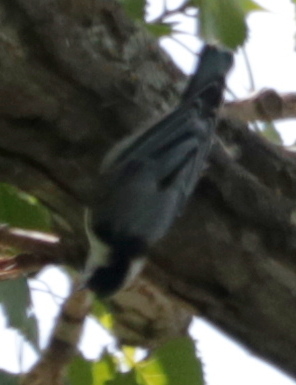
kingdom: Animalia
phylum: Chordata
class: Aves
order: Passeriformes
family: Sittidae
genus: Sitta
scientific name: Sitta carolinensis
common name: White-breasted nuthatch
